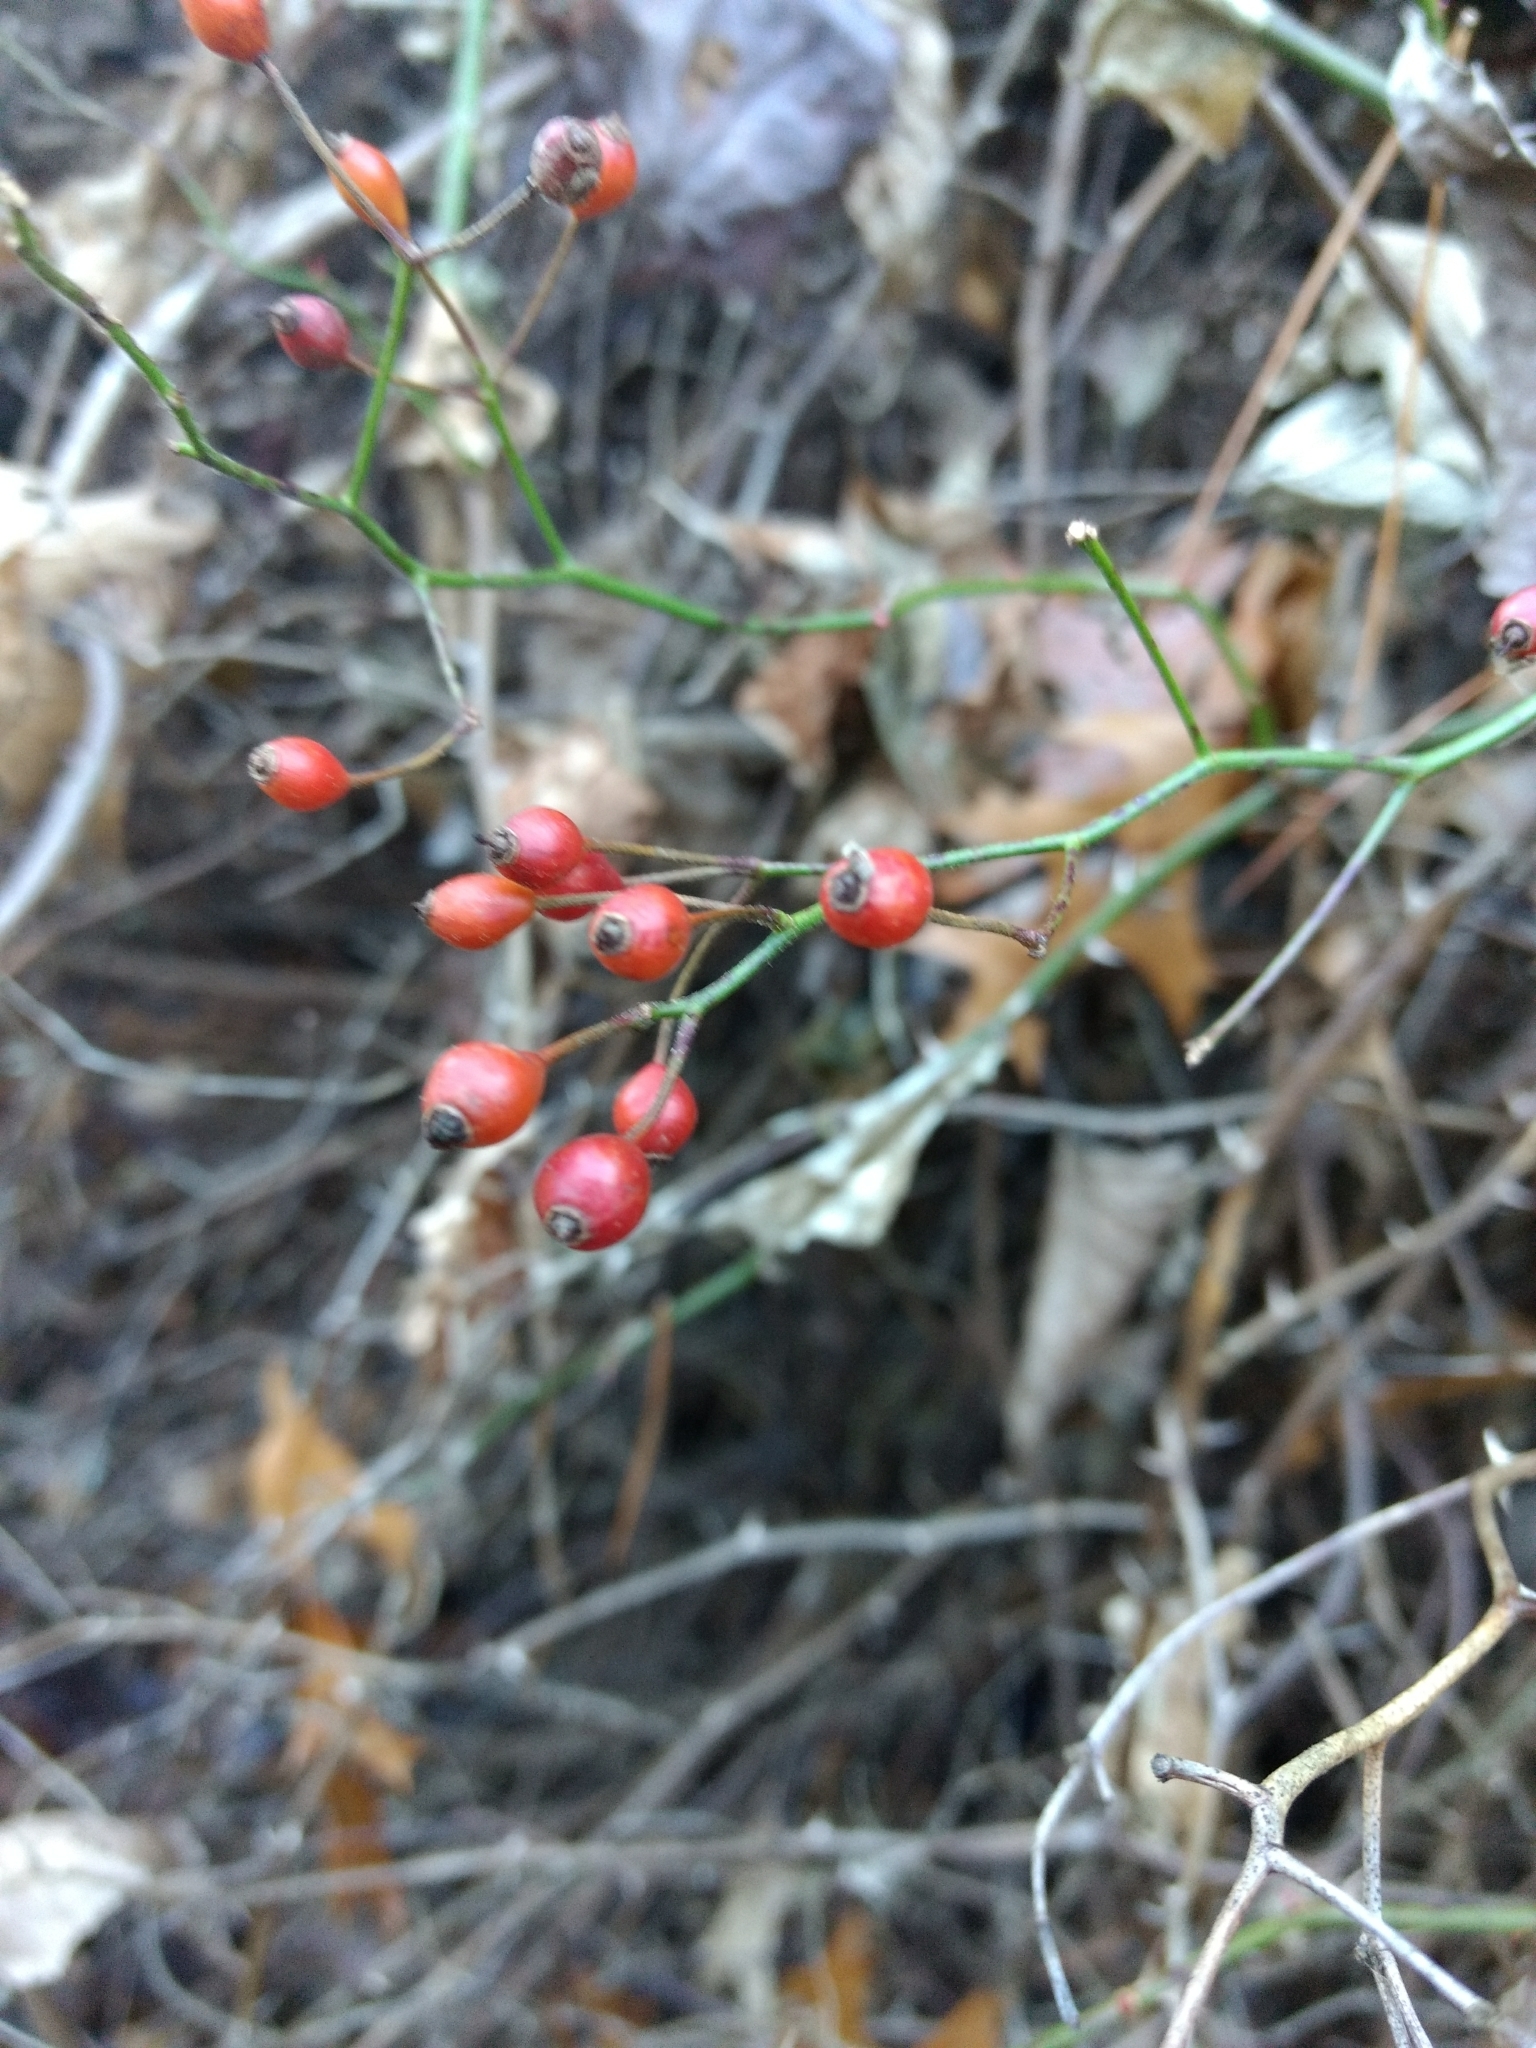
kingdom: Plantae
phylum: Tracheophyta
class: Magnoliopsida
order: Rosales
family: Rosaceae
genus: Rosa
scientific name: Rosa multiflora
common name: Multiflora rose
